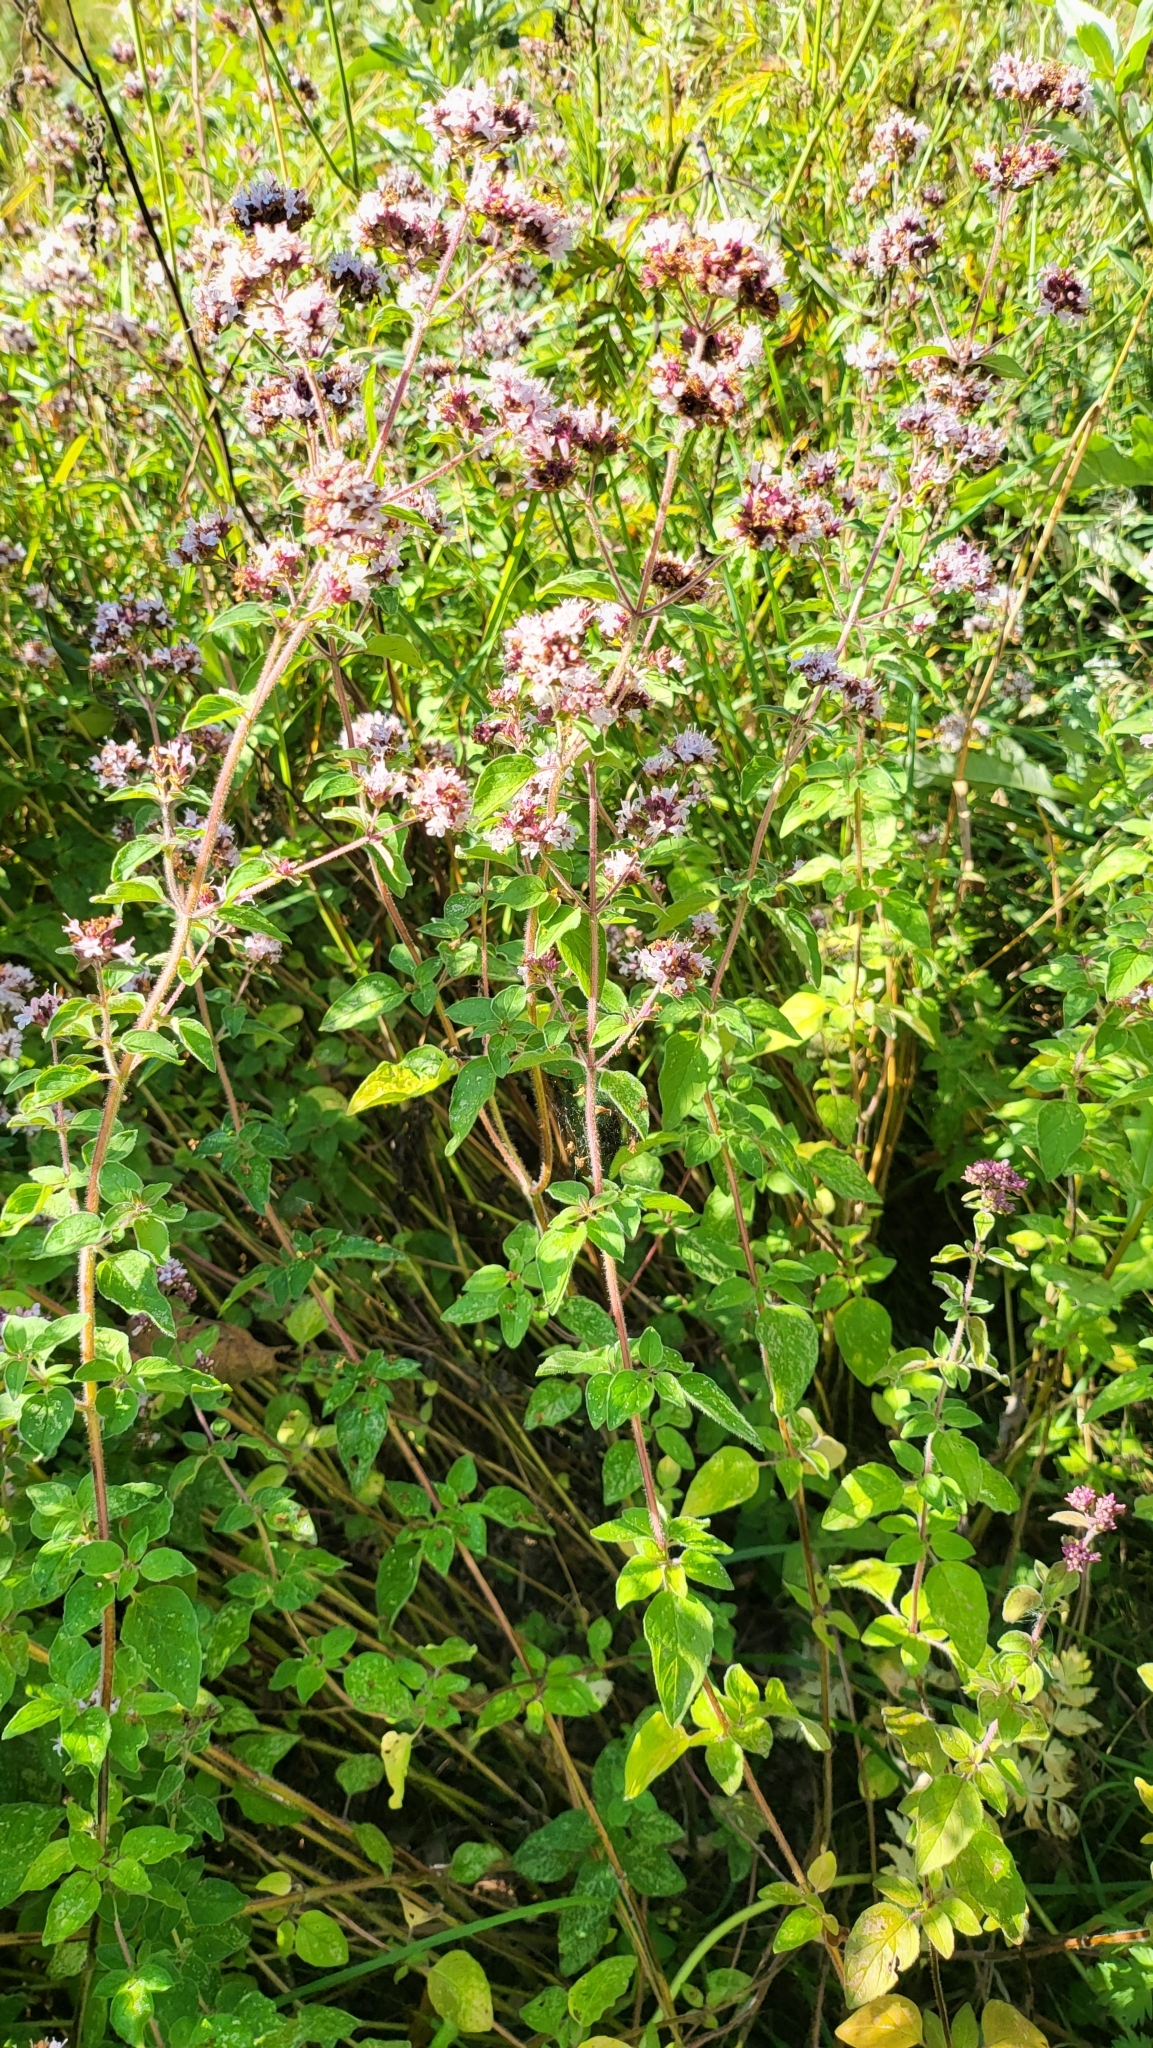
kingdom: Plantae
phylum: Tracheophyta
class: Magnoliopsida
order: Lamiales
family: Lamiaceae
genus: Origanum
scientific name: Origanum vulgare
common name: Wild marjoram
